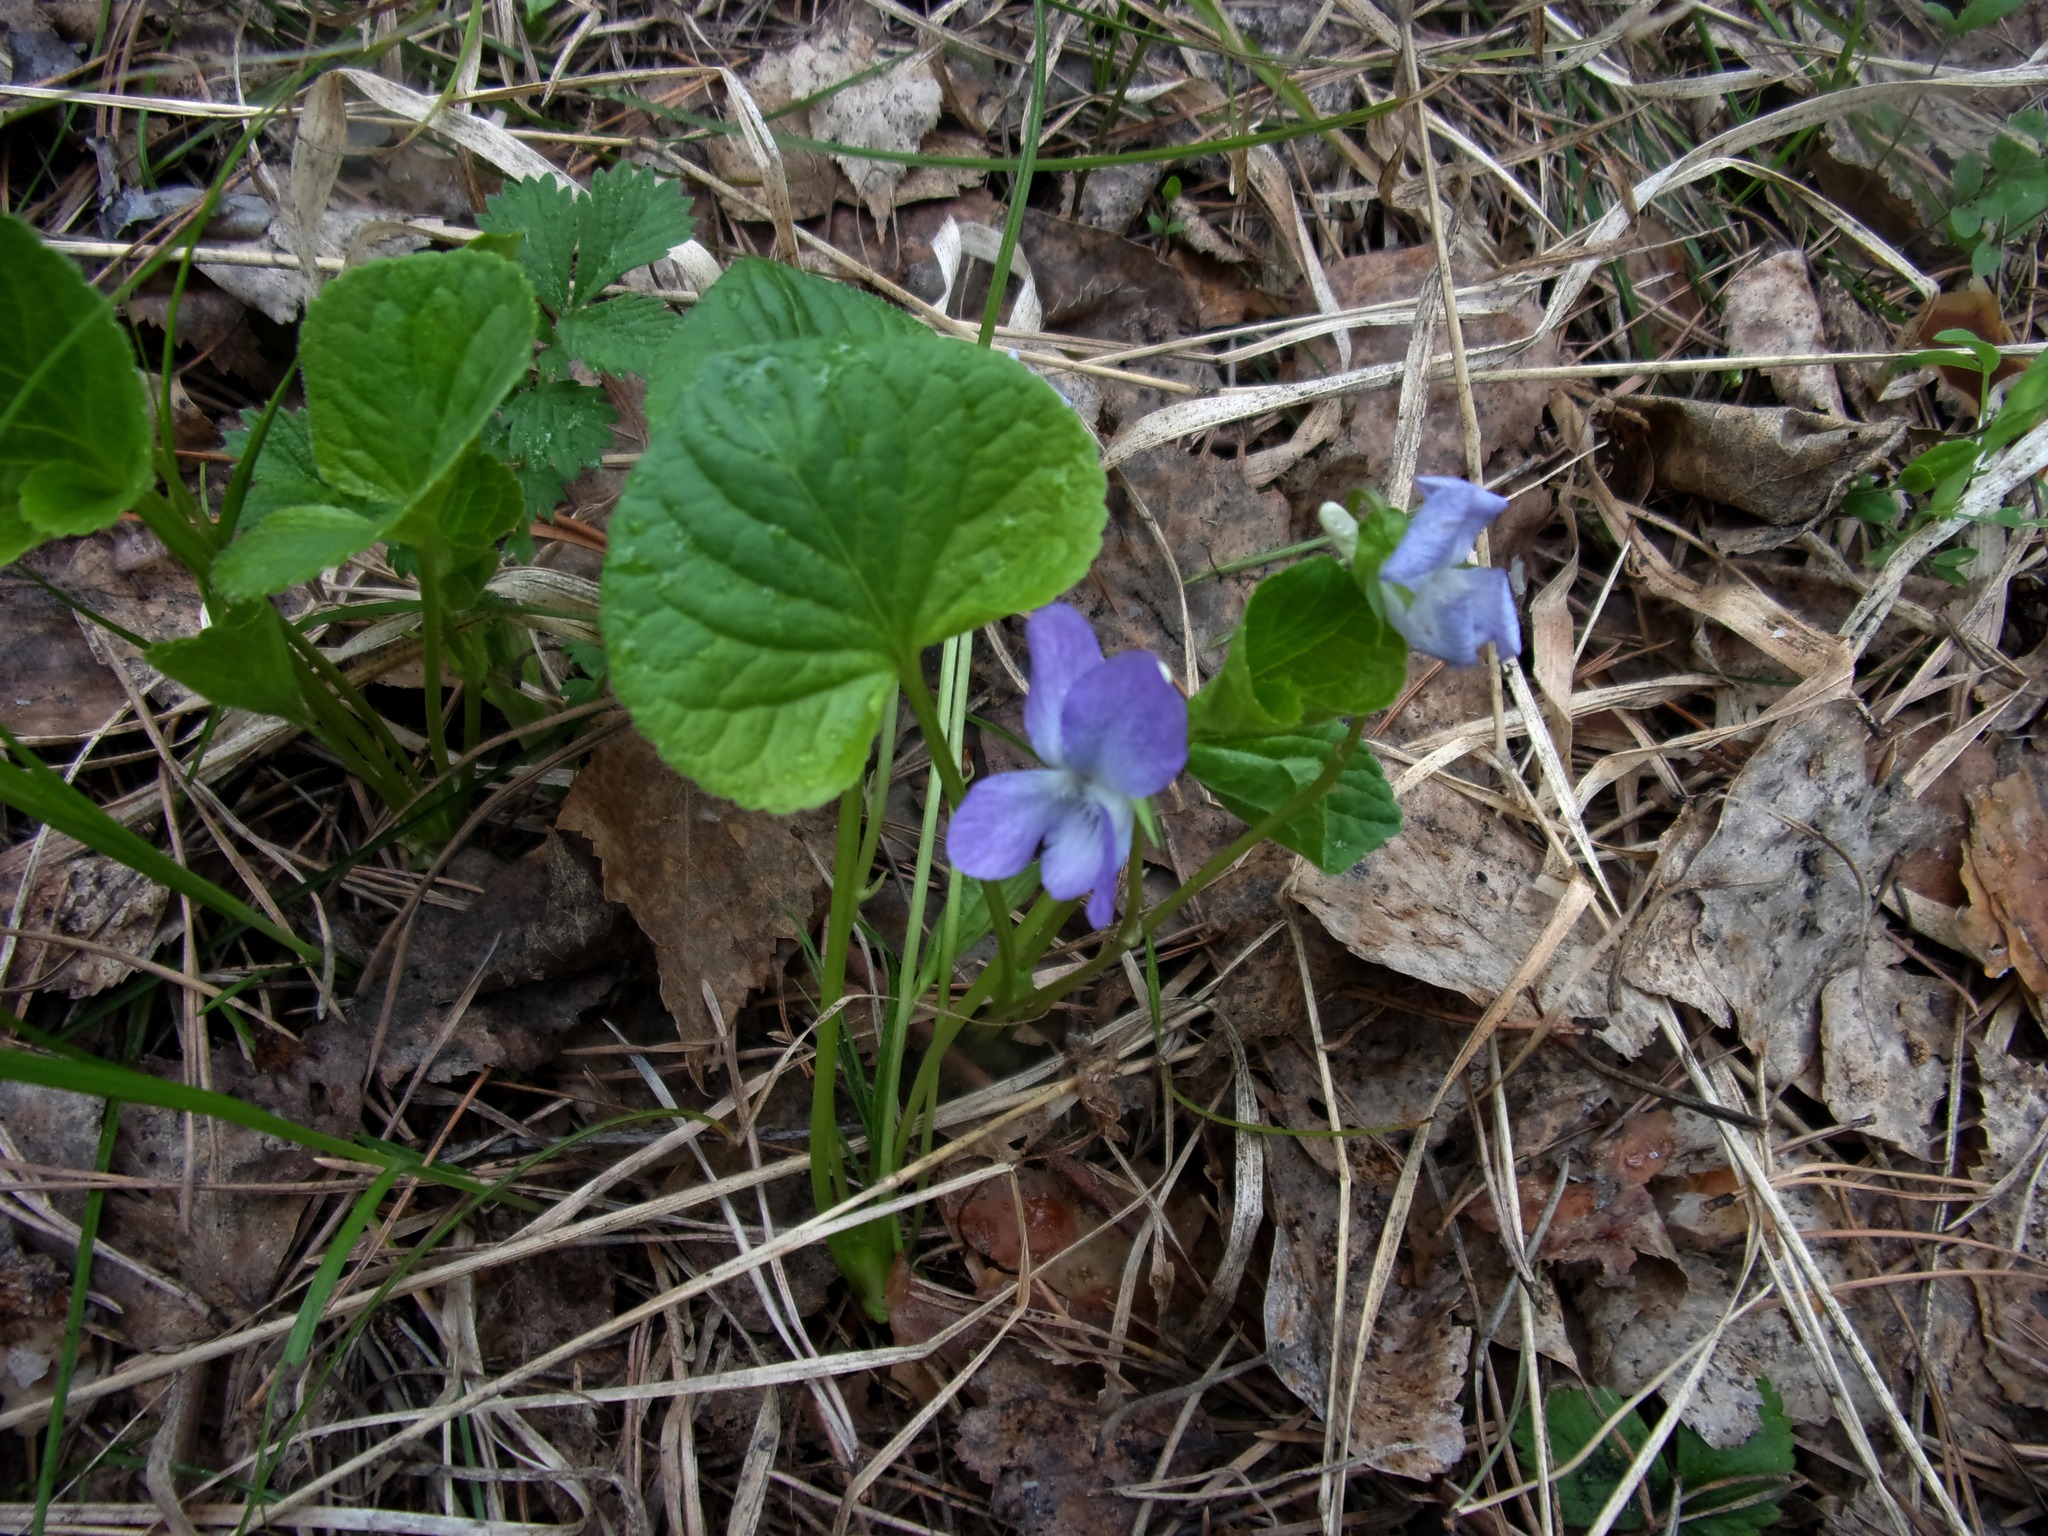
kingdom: Plantae
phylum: Tracheophyta
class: Magnoliopsida
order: Malpighiales
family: Violaceae
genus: Viola
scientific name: Viola mirabilis
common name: Wonder violet
